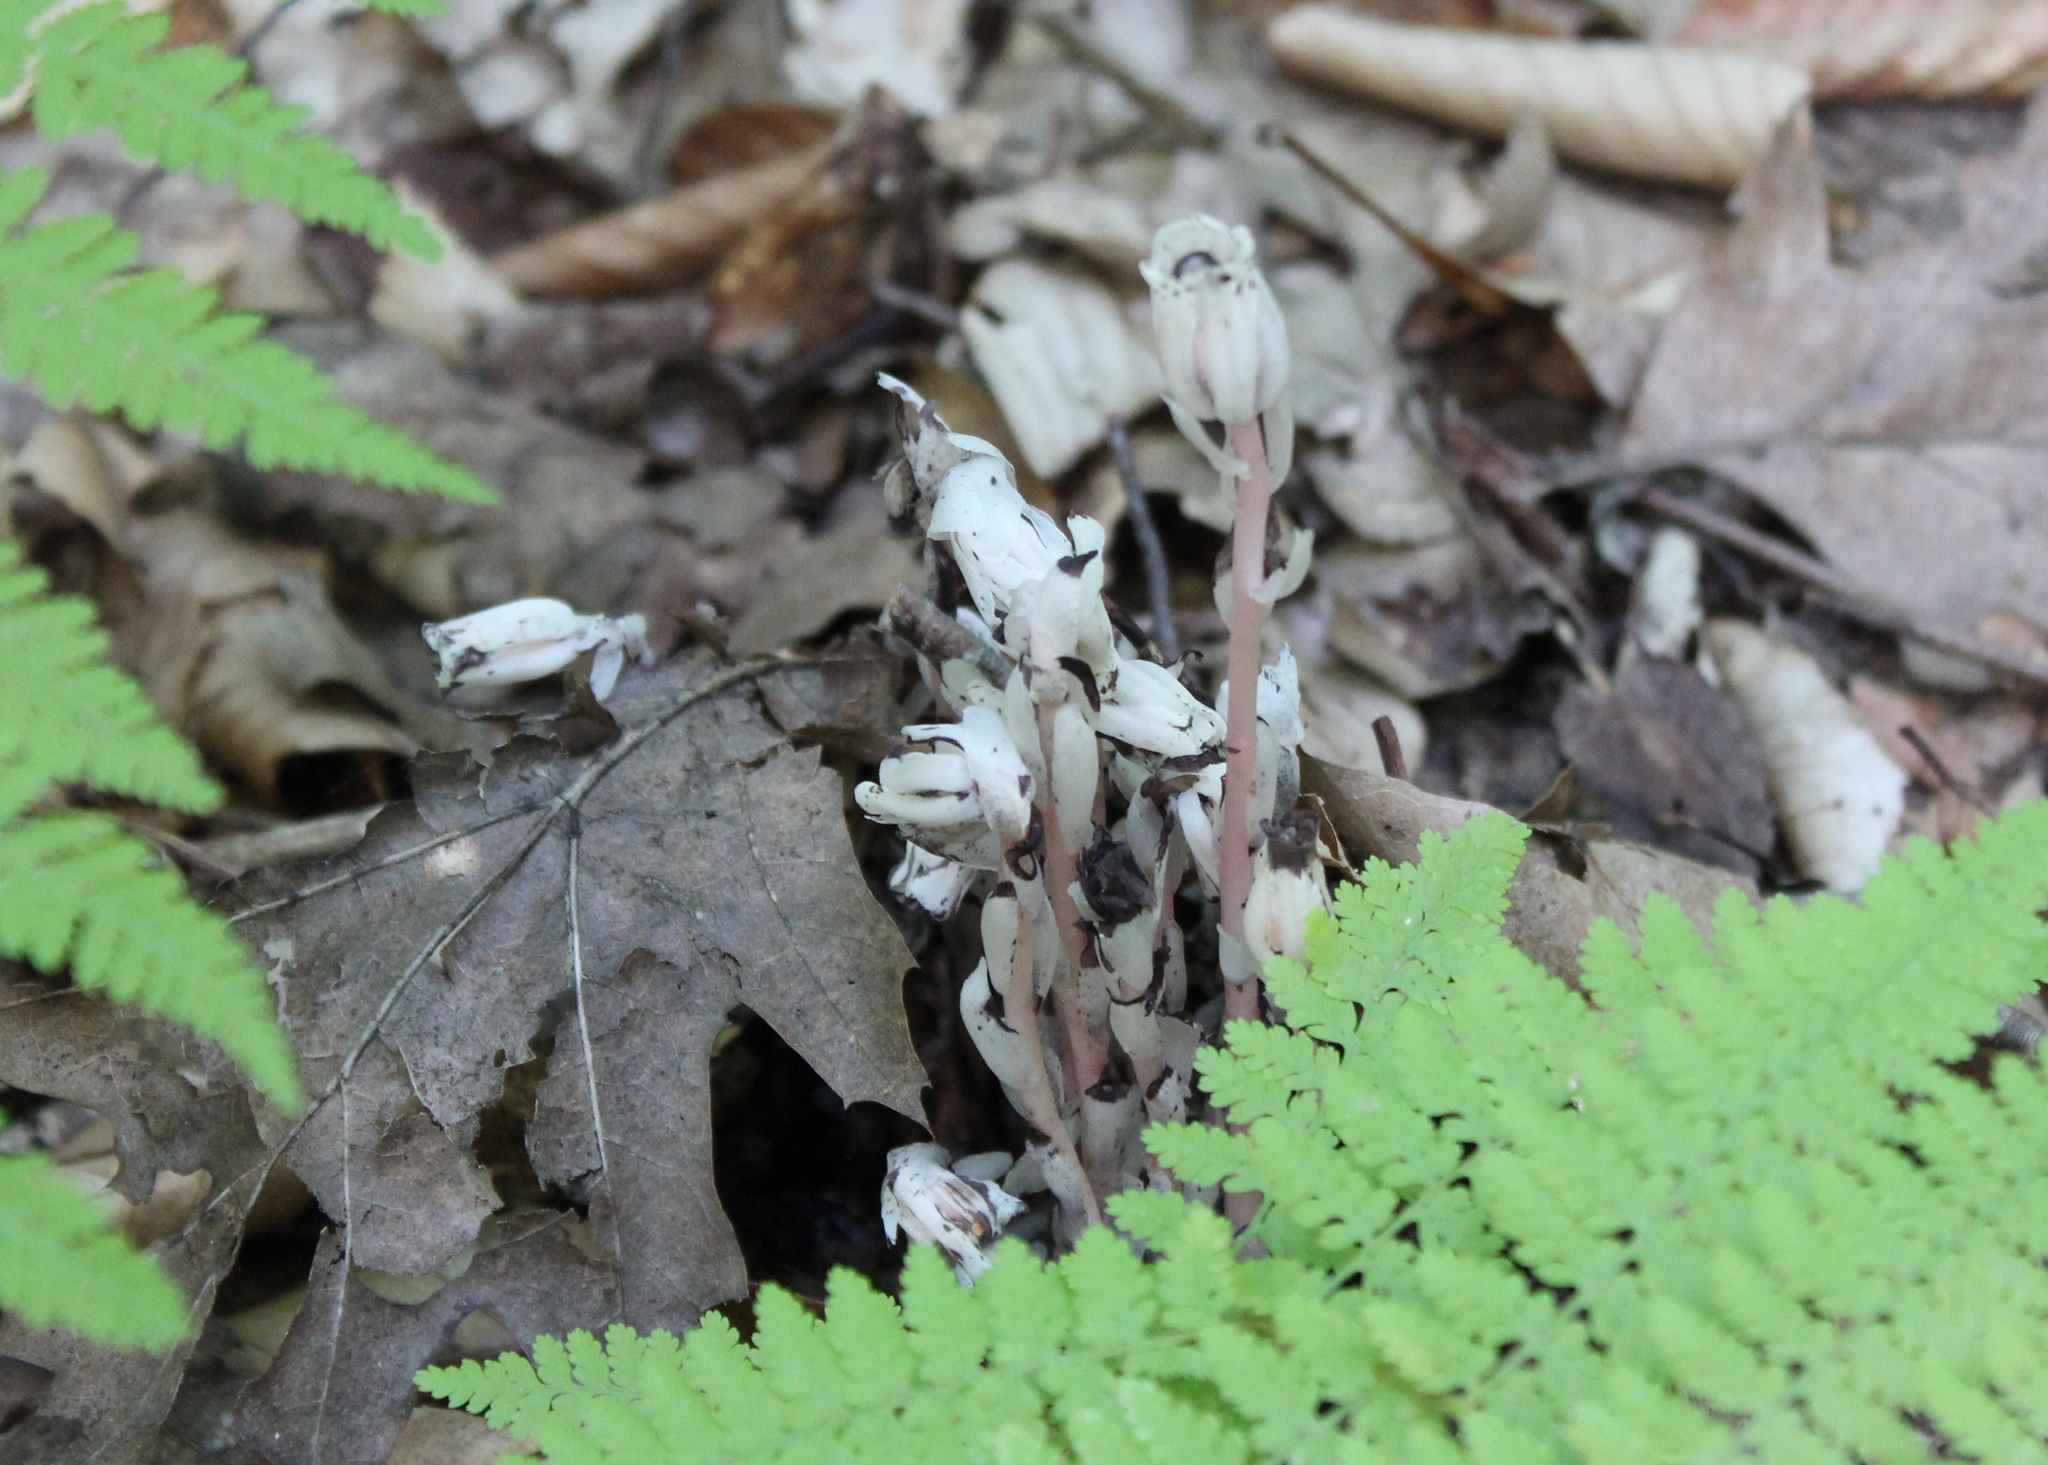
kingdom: Plantae
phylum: Tracheophyta
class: Magnoliopsida
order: Ericales
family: Ericaceae
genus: Monotropa
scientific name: Monotropa uniflora
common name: Convulsion root
